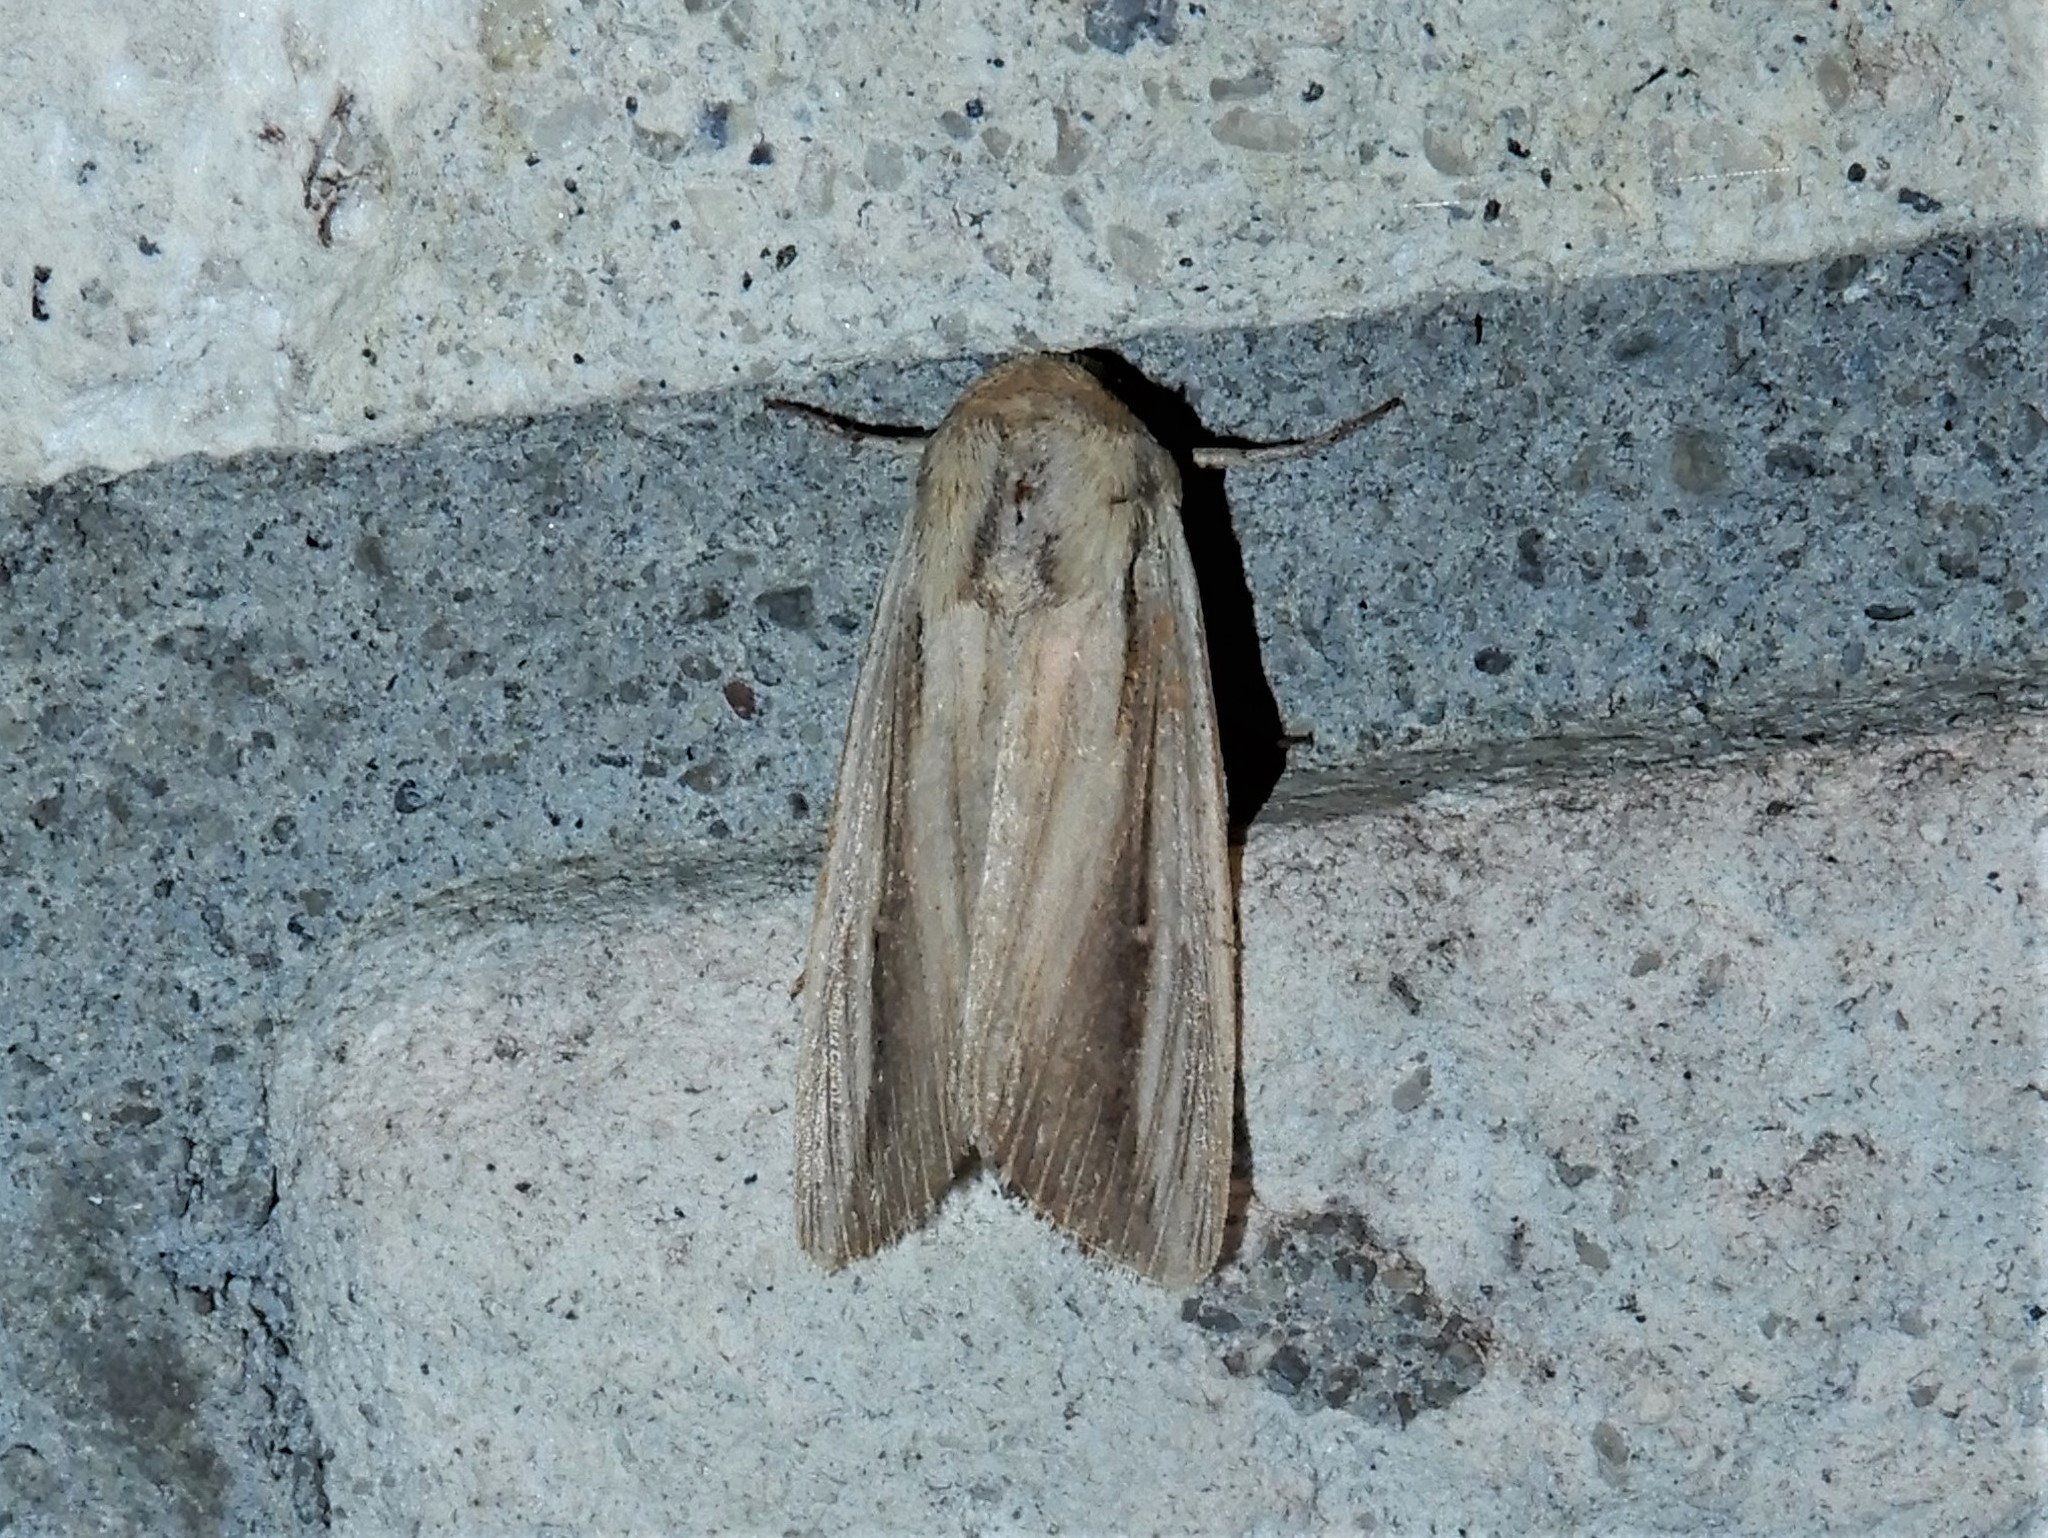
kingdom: Animalia
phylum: Arthropoda
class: Insecta
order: Lepidoptera
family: Noctuidae
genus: Leucania
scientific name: Leucania stenographa
